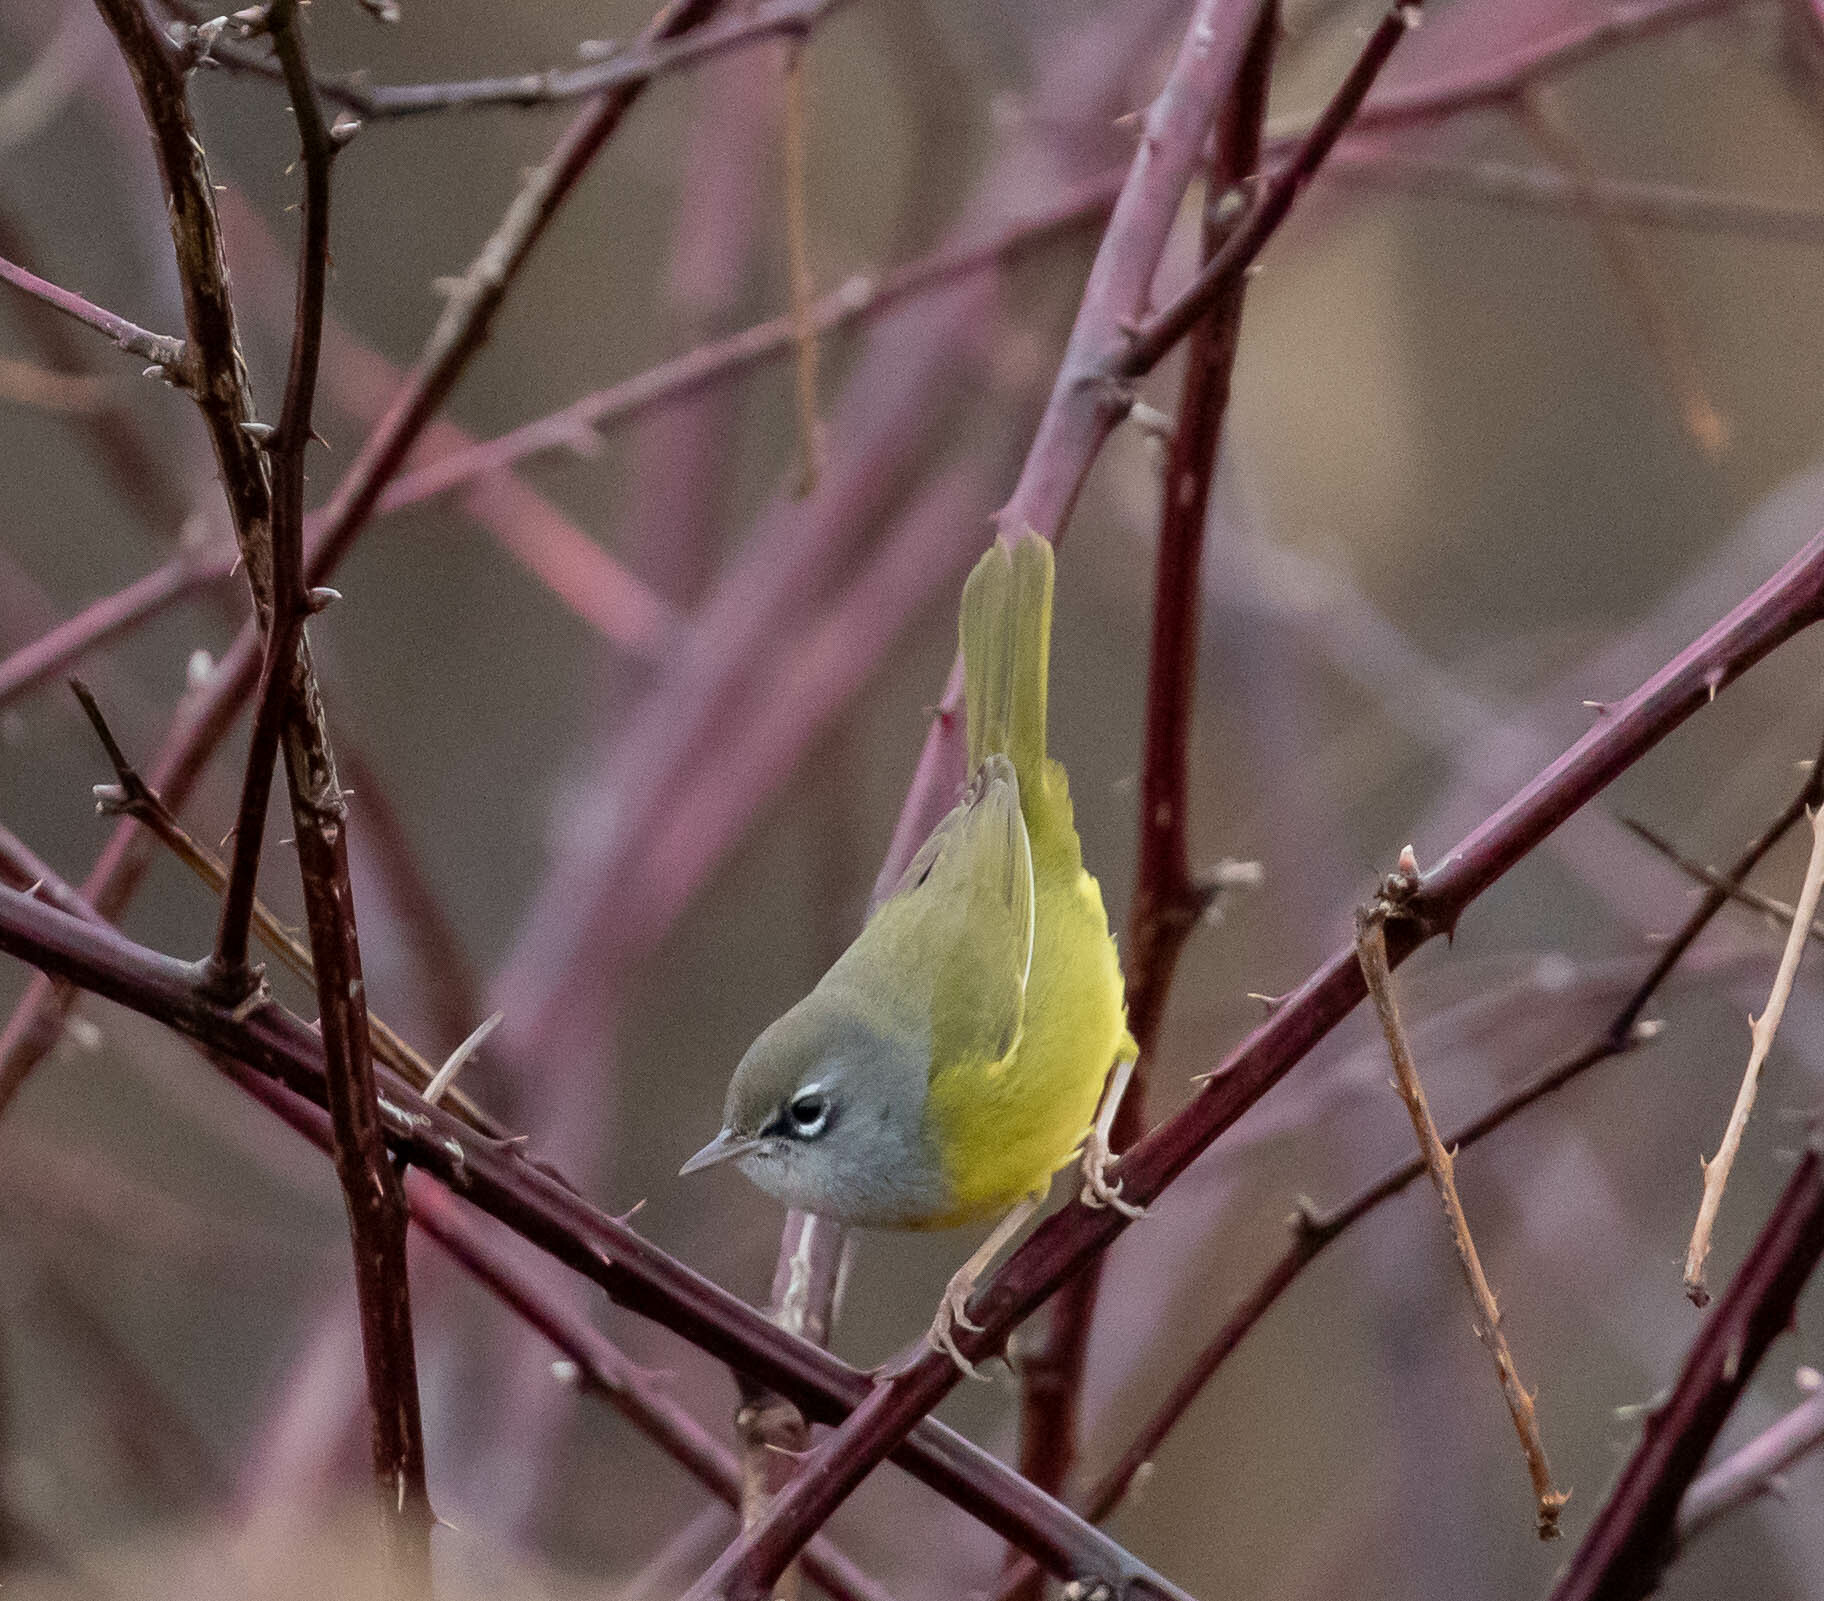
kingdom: Animalia
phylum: Chordata
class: Aves
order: Passeriformes
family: Parulidae
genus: Geothlypis
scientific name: Geothlypis tolmiei
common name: Macgillivray's warbler
